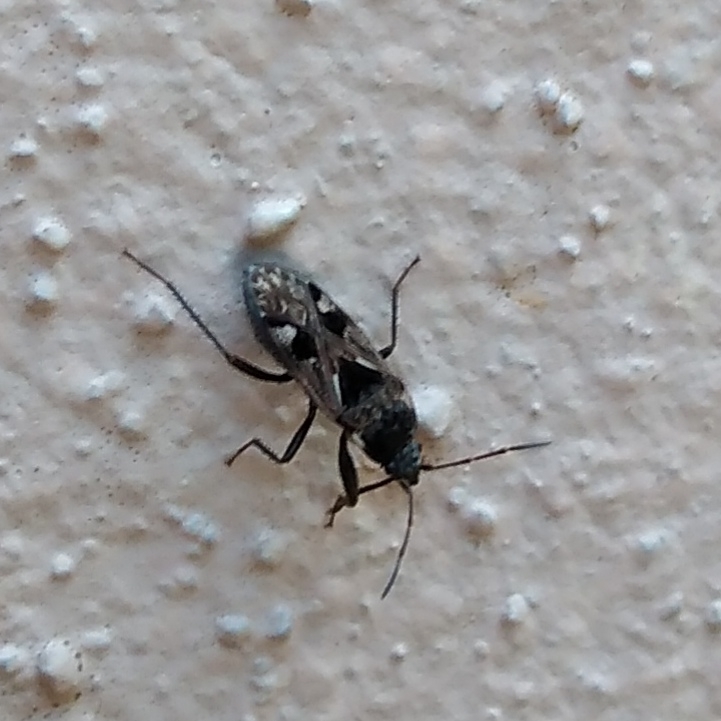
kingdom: Animalia
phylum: Arthropoda
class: Insecta
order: Hemiptera
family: Rhyparochromidae
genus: Caprochromus
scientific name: Caprochromus moerens
